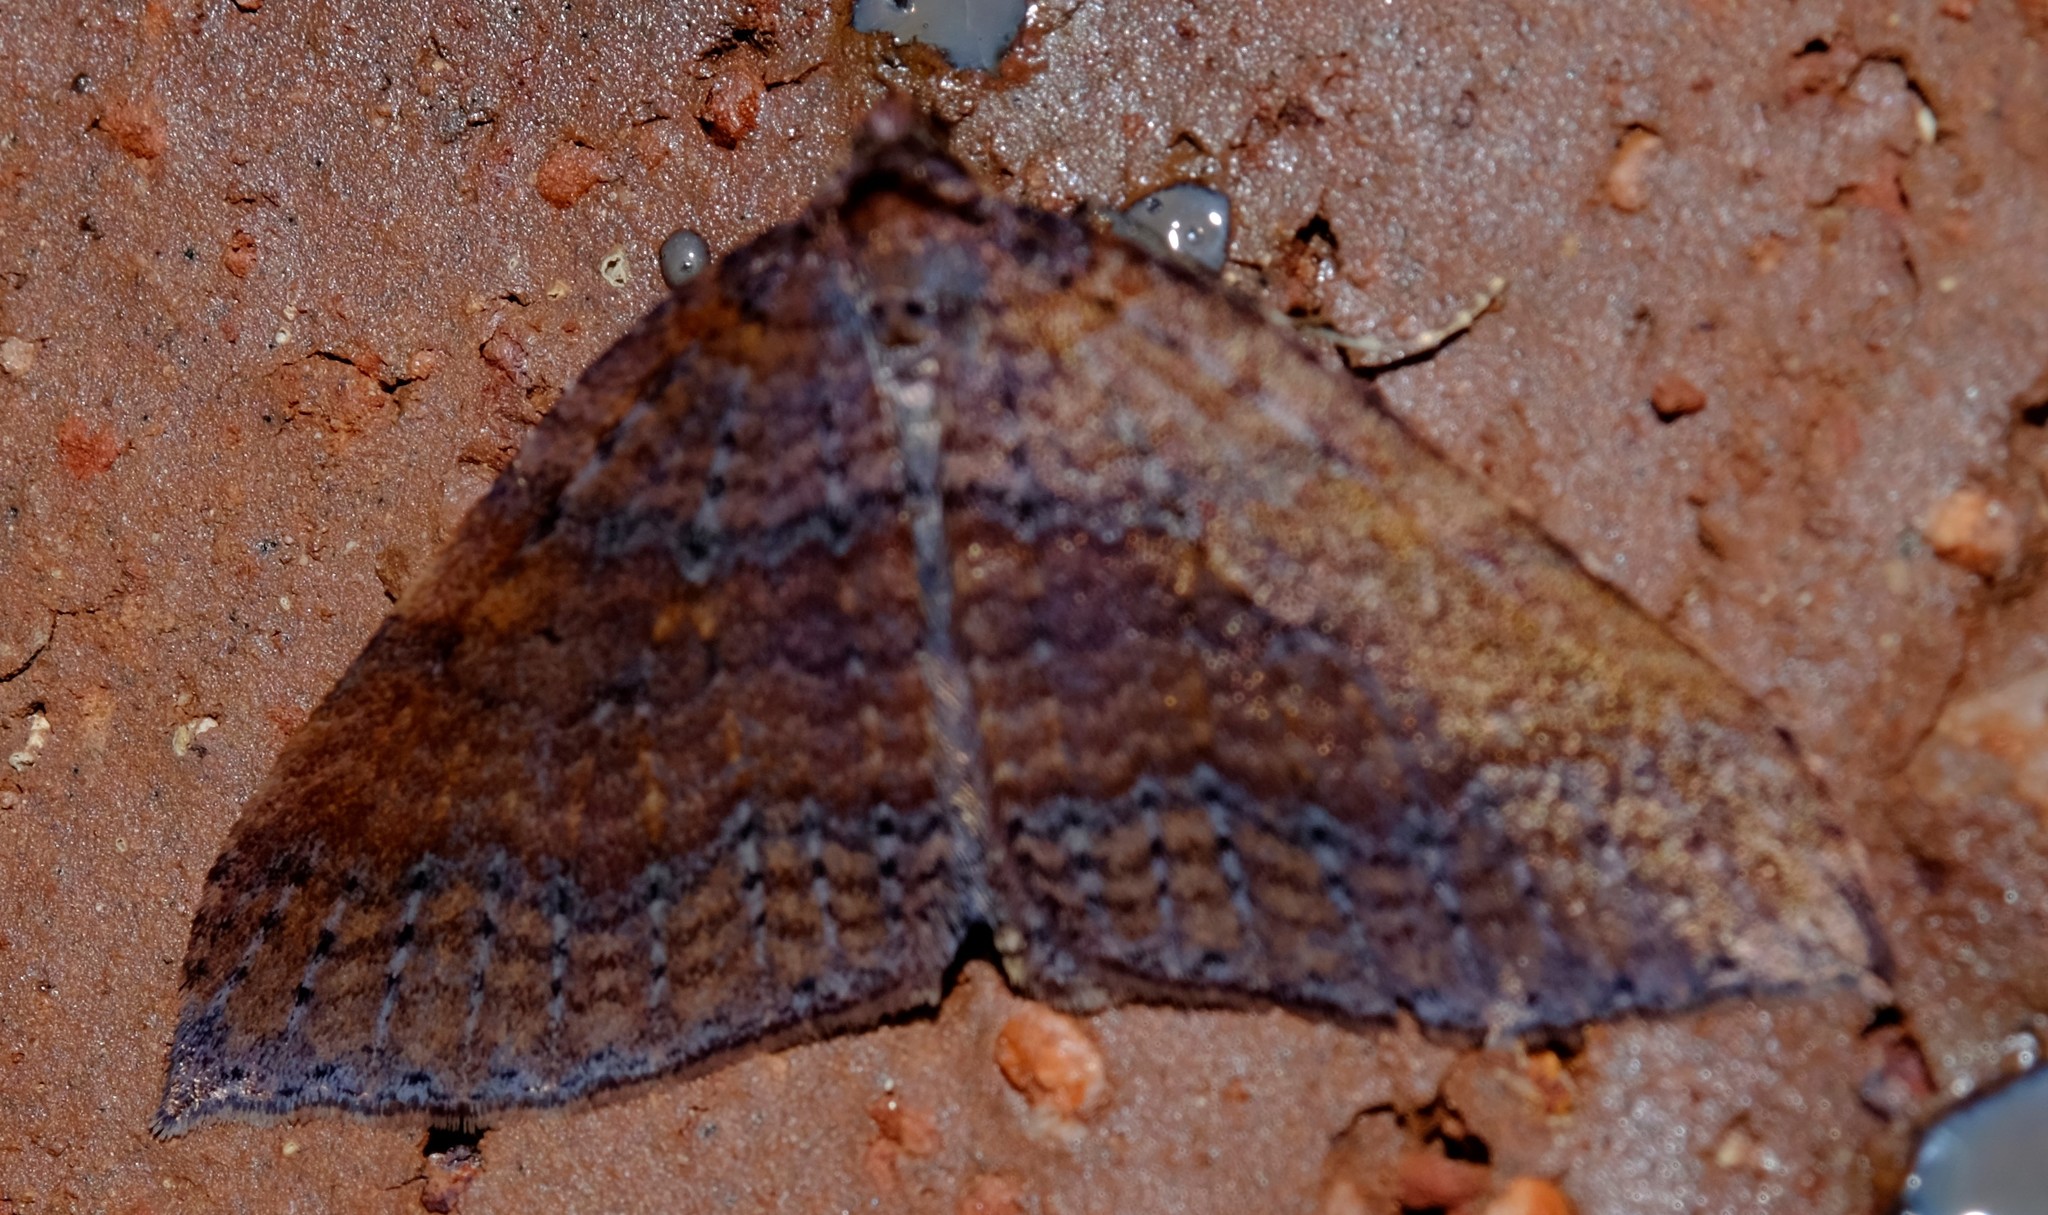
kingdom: Animalia
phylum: Arthropoda
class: Insecta
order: Lepidoptera
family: Geometridae
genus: Larentia
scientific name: Larentia apotoma
